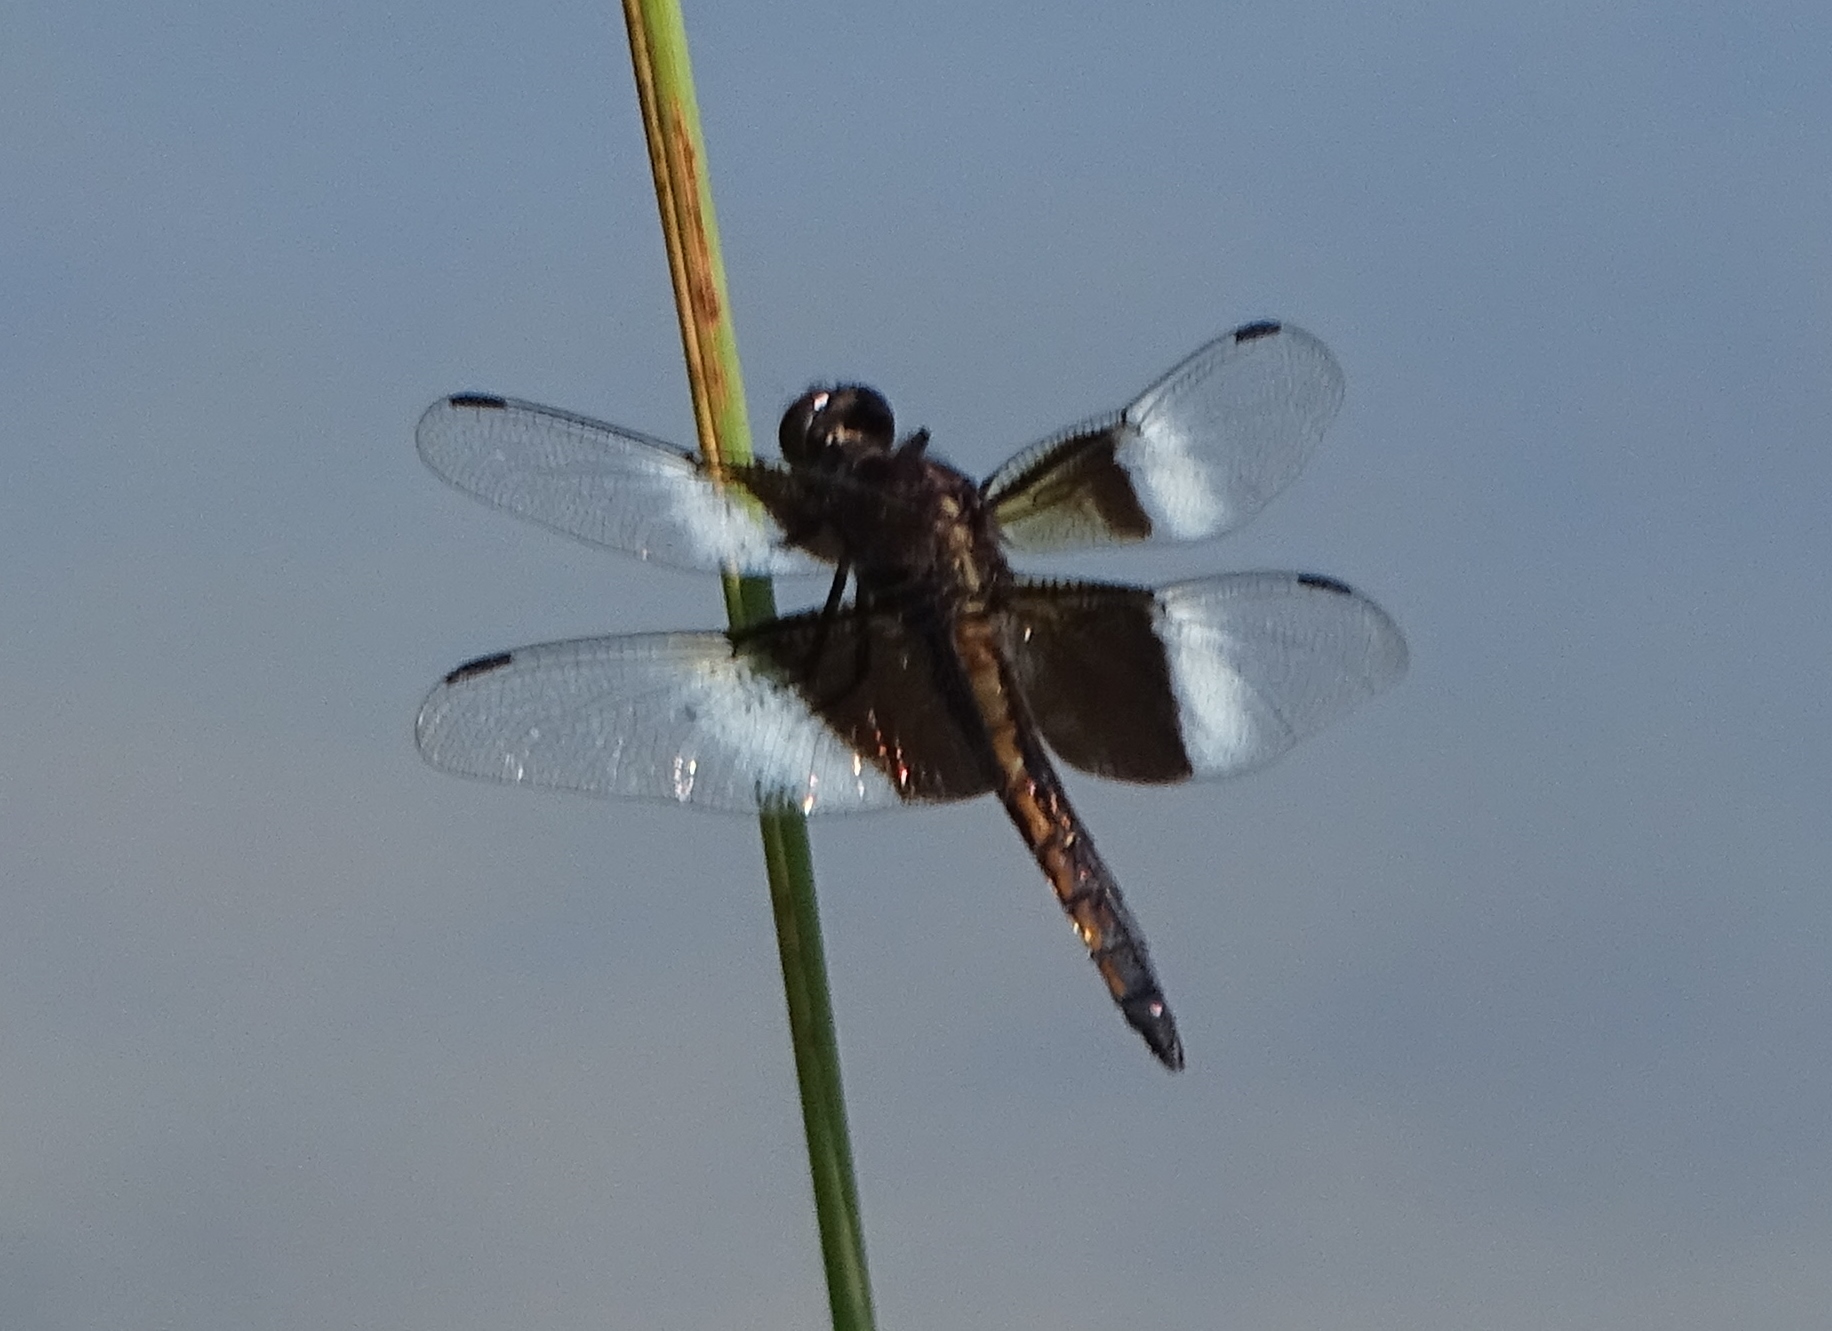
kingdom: Animalia
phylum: Arthropoda
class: Insecta
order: Odonata
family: Libellulidae
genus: Libellula
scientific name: Libellula luctuosa
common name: Widow skimmer
